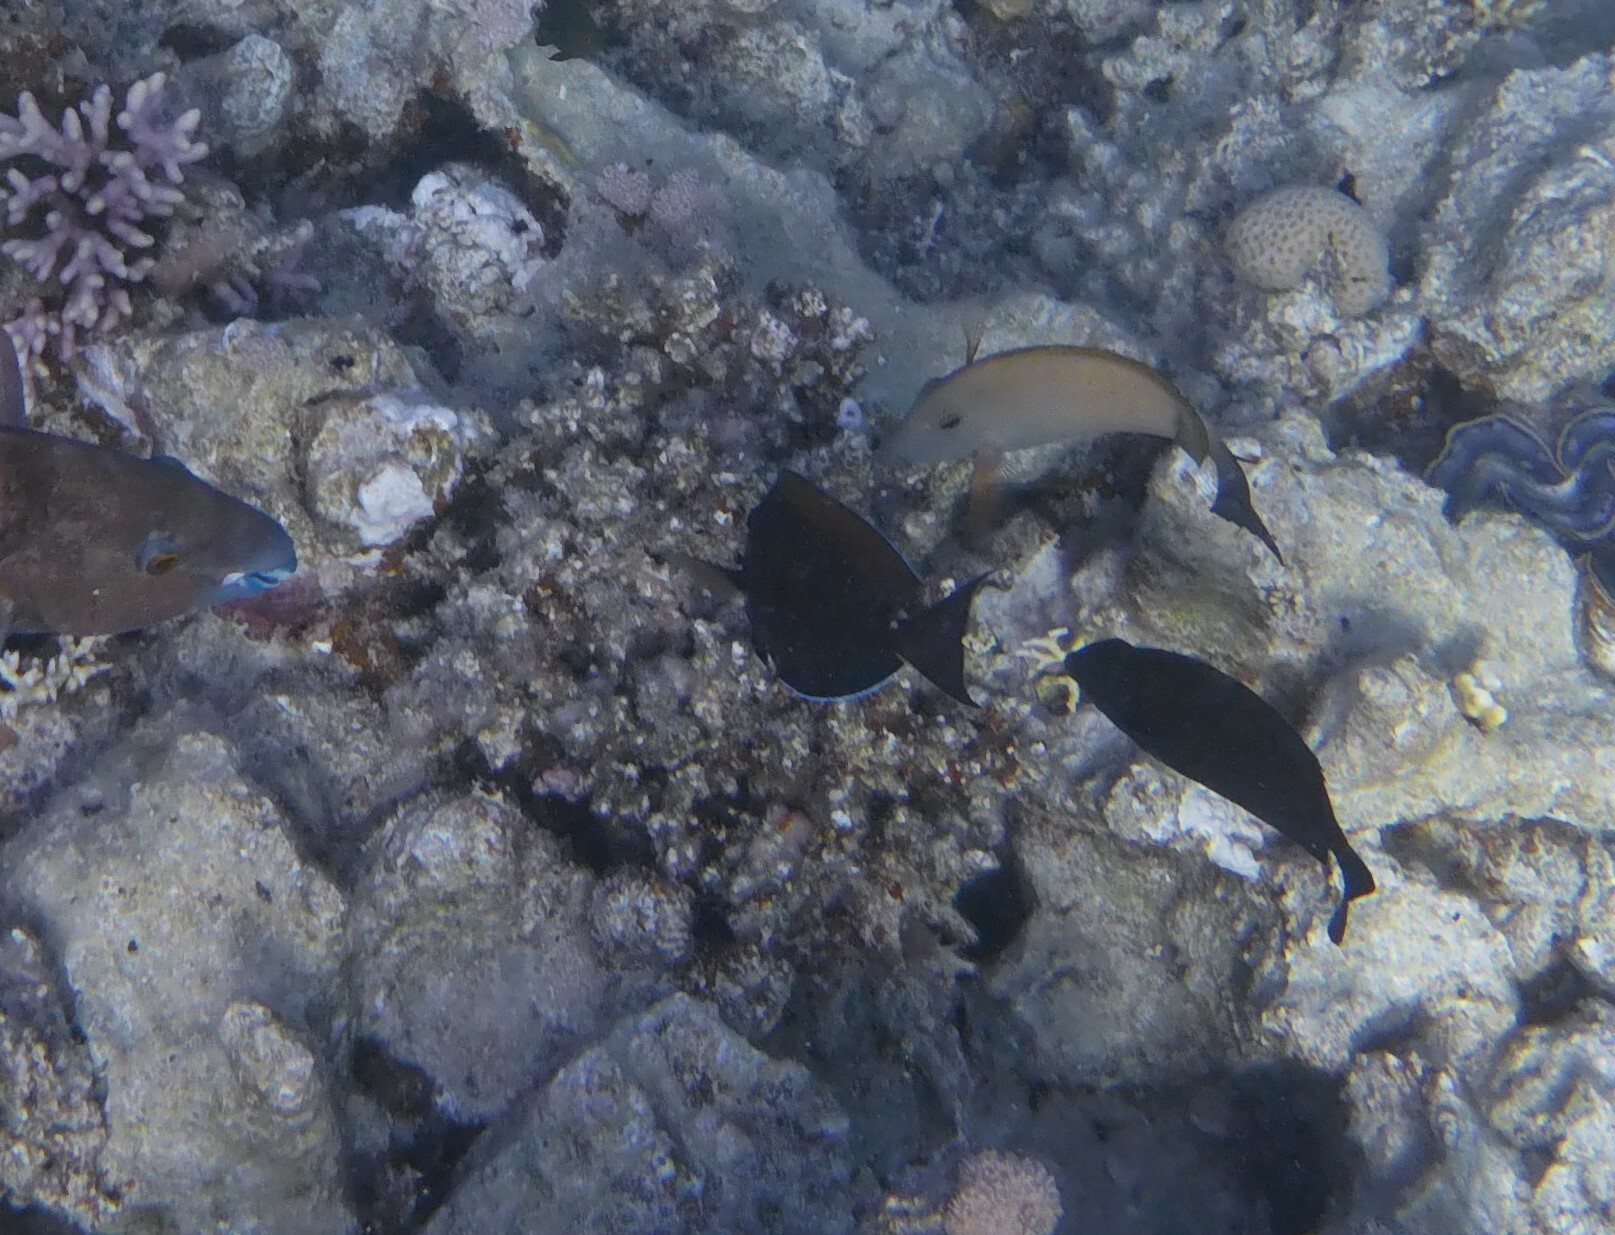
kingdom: Animalia
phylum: Chordata
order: Perciformes
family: Acanthuridae
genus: Ctenochaetus
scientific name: Ctenochaetus striatus
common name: Bristle-toothed surgeonfish
